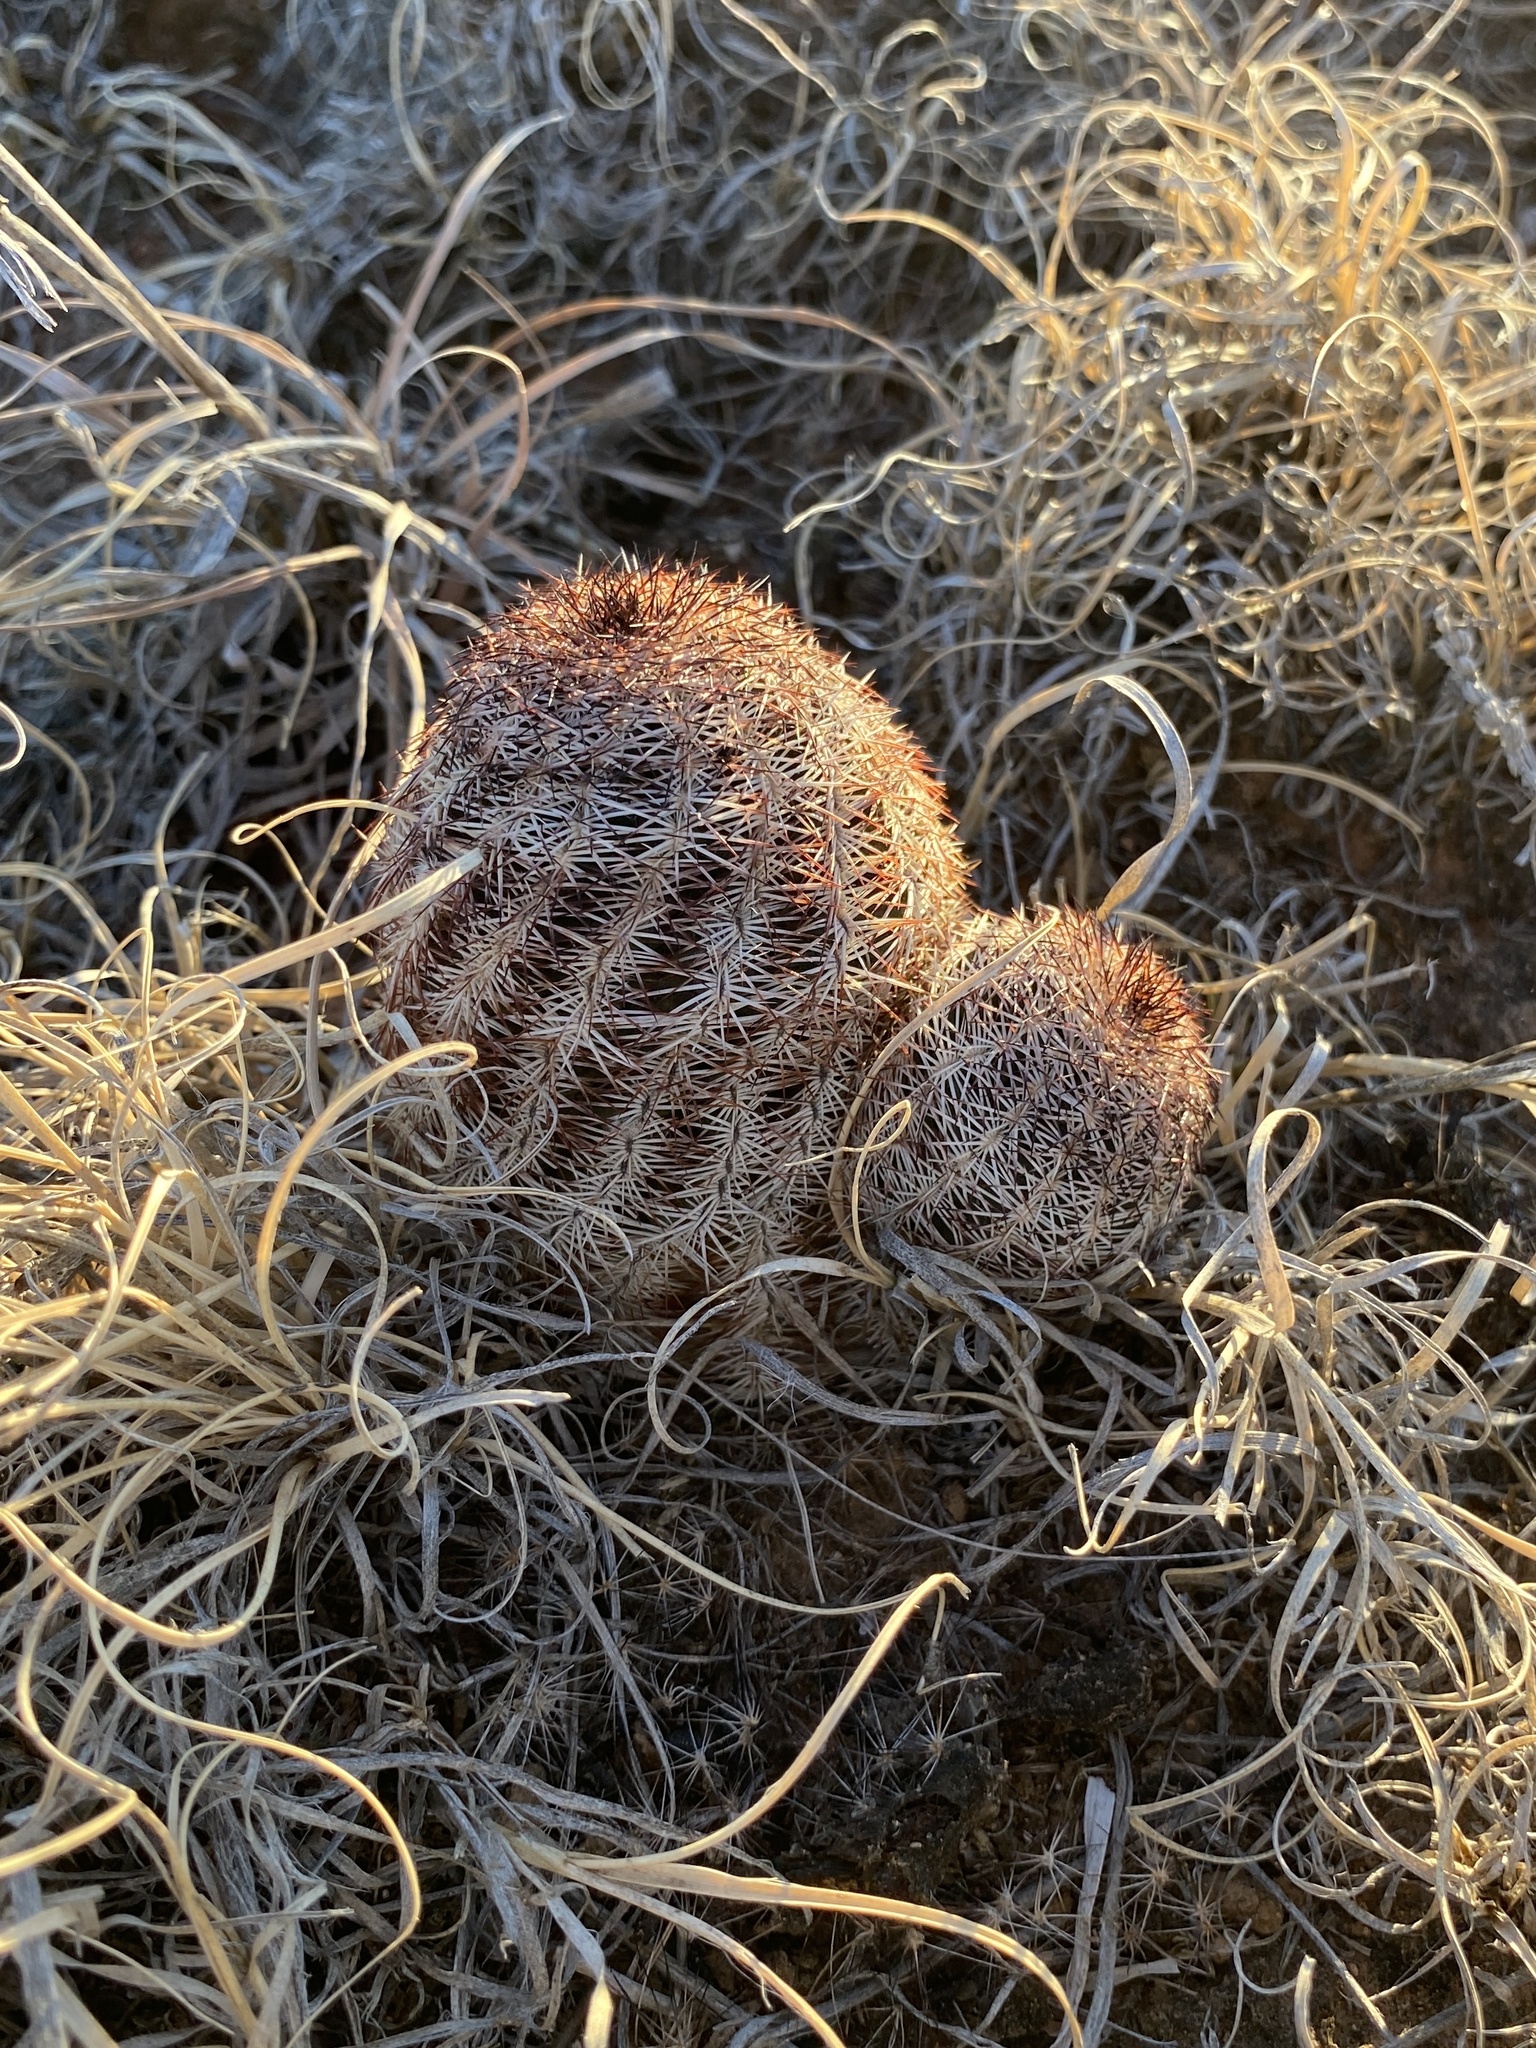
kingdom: Plantae
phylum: Tracheophyta
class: Magnoliopsida
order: Caryophyllales
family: Cactaceae
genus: Echinocereus
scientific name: Echinocereus reichenbachii
